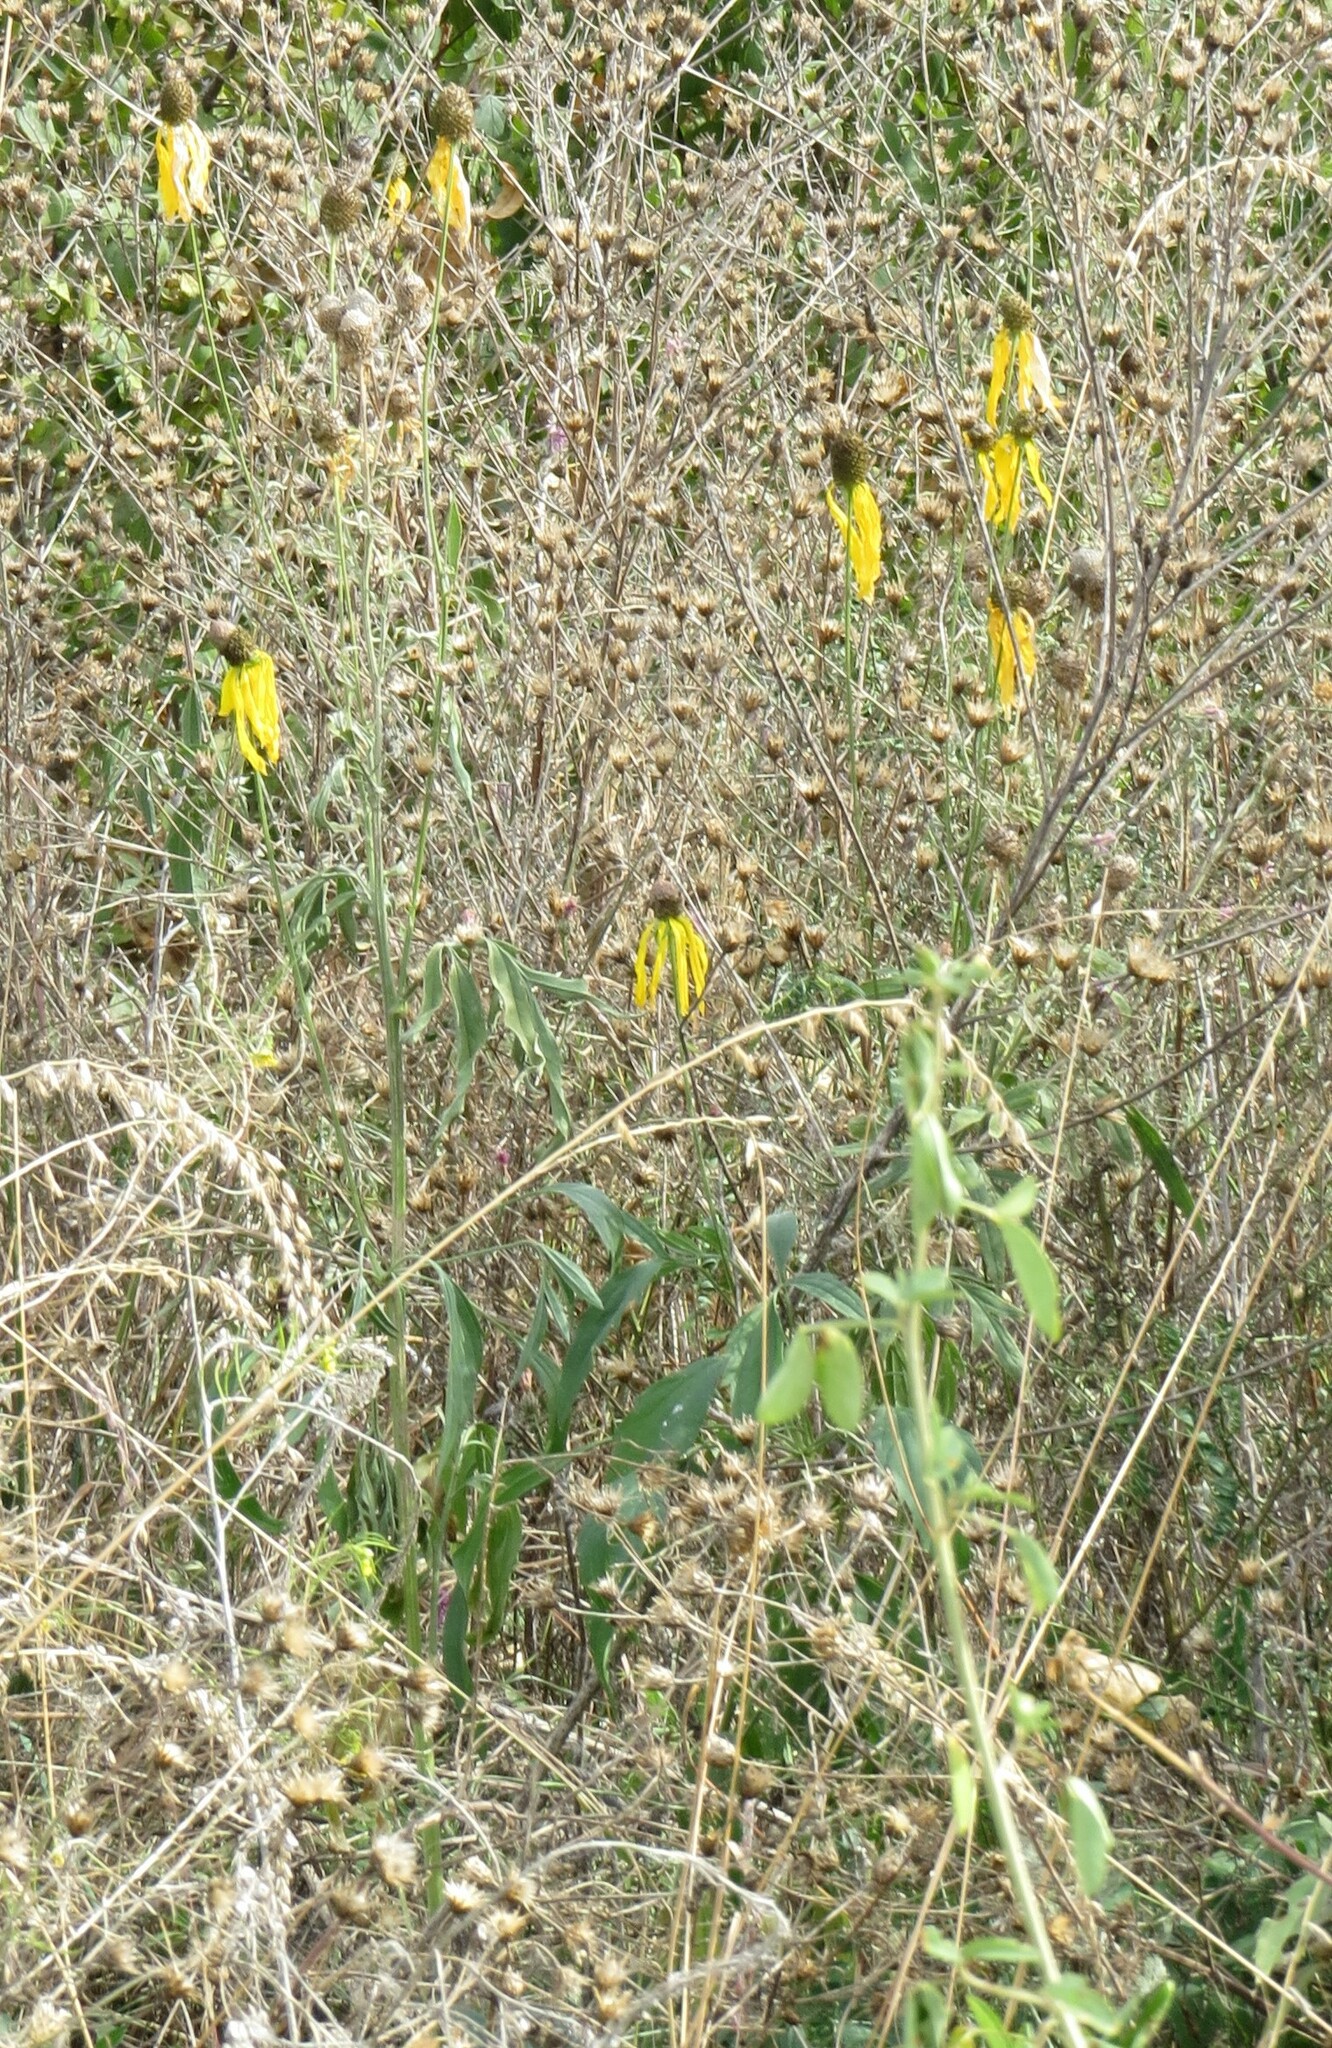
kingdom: Plantae
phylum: Tracheophyta
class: Magnoliopsida
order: Asterales
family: Asteraceae
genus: Ratibida
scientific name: Ratibida pinnata
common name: Drooping prairie-coneflower
